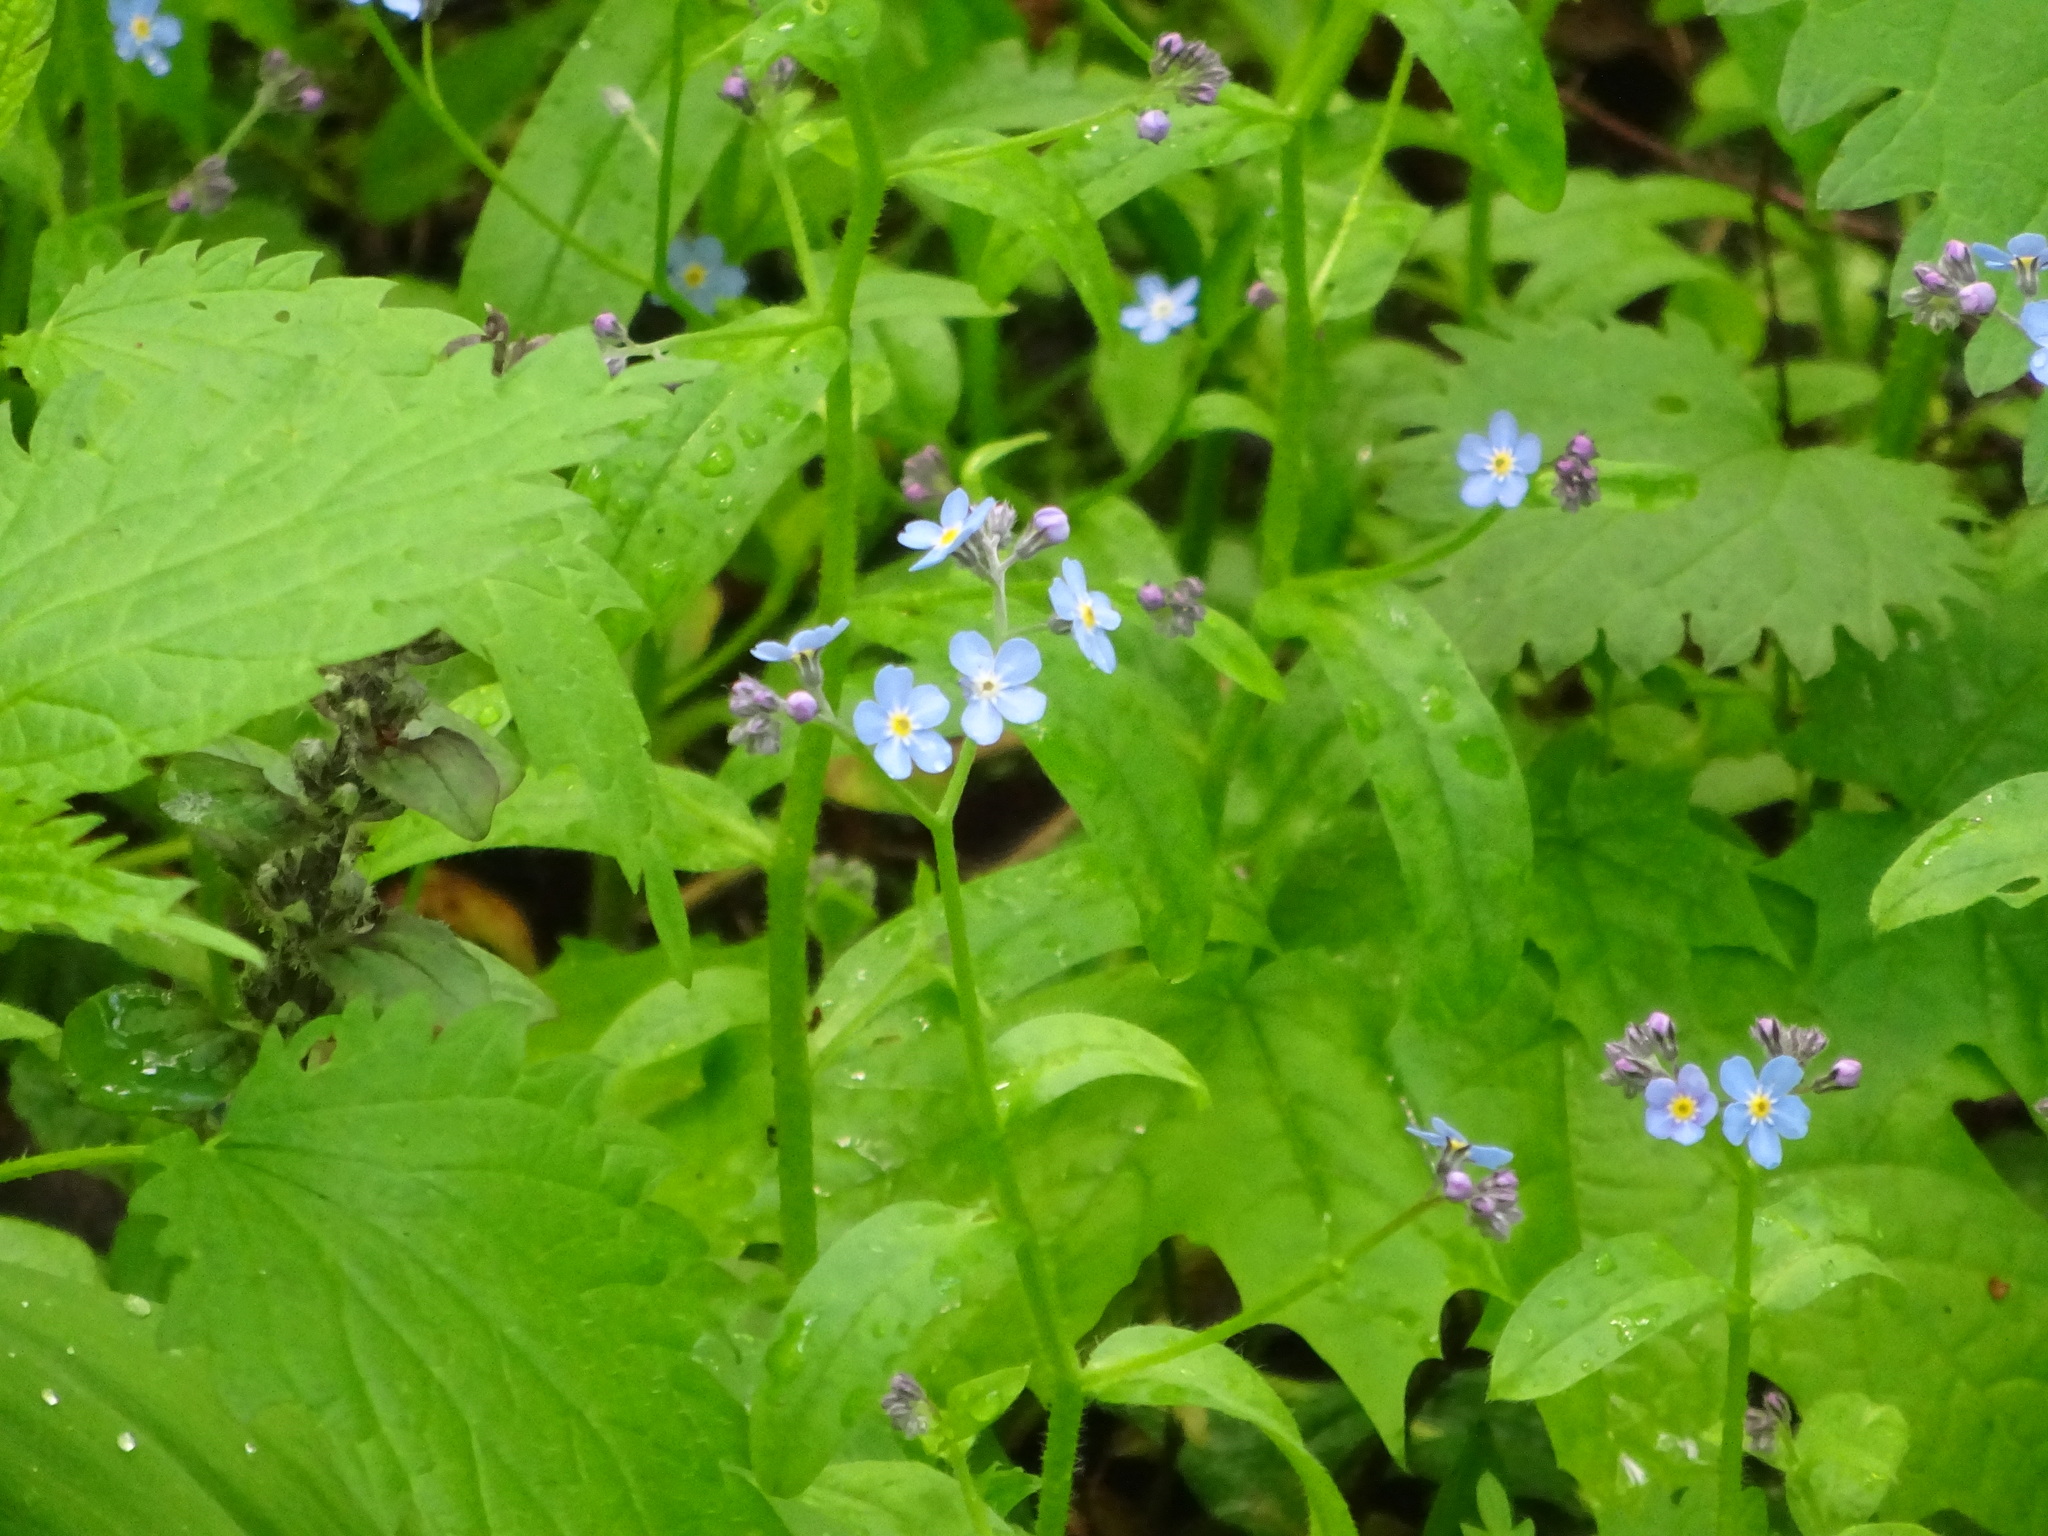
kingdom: Plantae
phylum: Tracheophyta
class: Magnoliopsida
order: Boraginales
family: Boraginaceae
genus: Myosotis
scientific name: Myosotis sylvatica
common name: Wood forget-me-not
